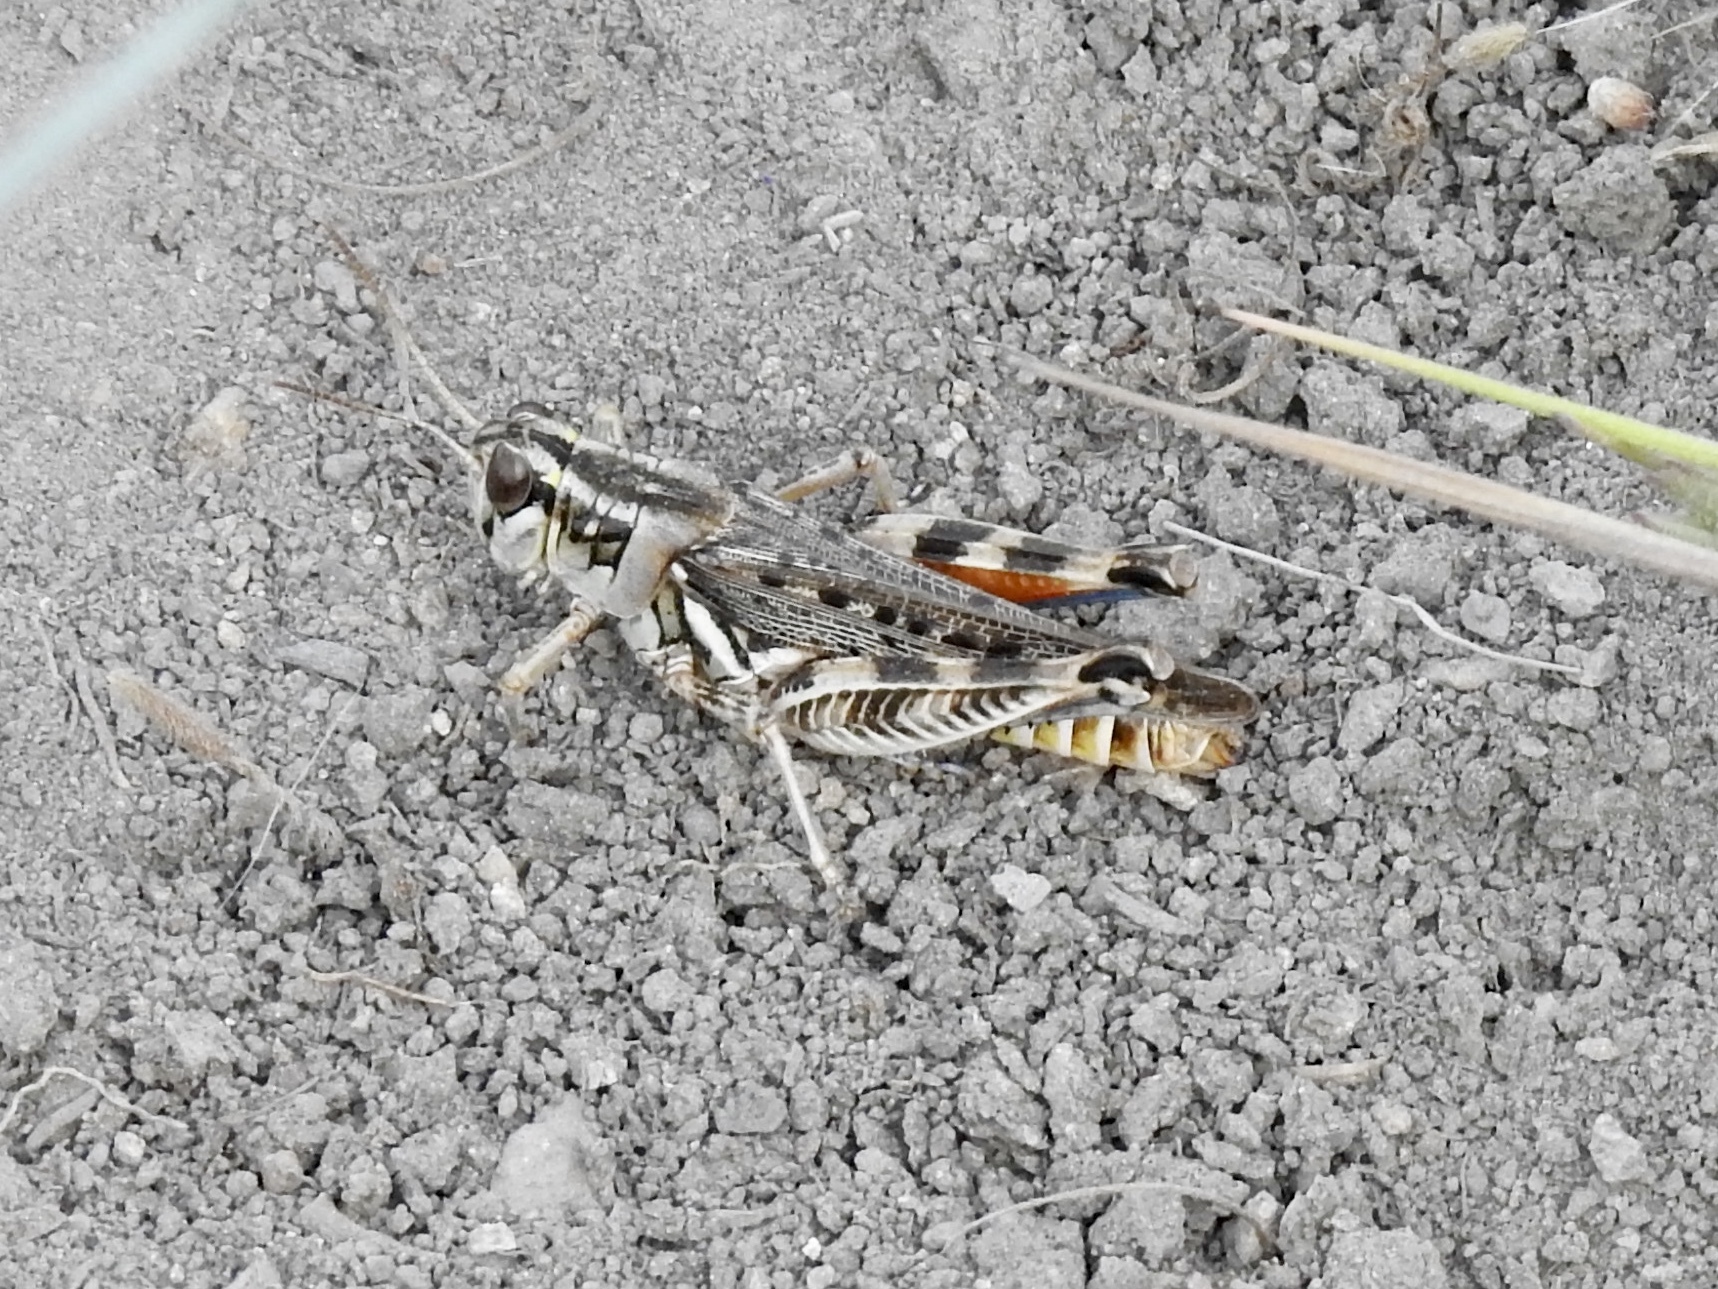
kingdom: Animalia
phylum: Arthropoda
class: Insecta
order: Orthoptera
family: Acrididae
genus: Melanoplus
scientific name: Melanoplus occidentalis
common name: Flabellate grasshopper
